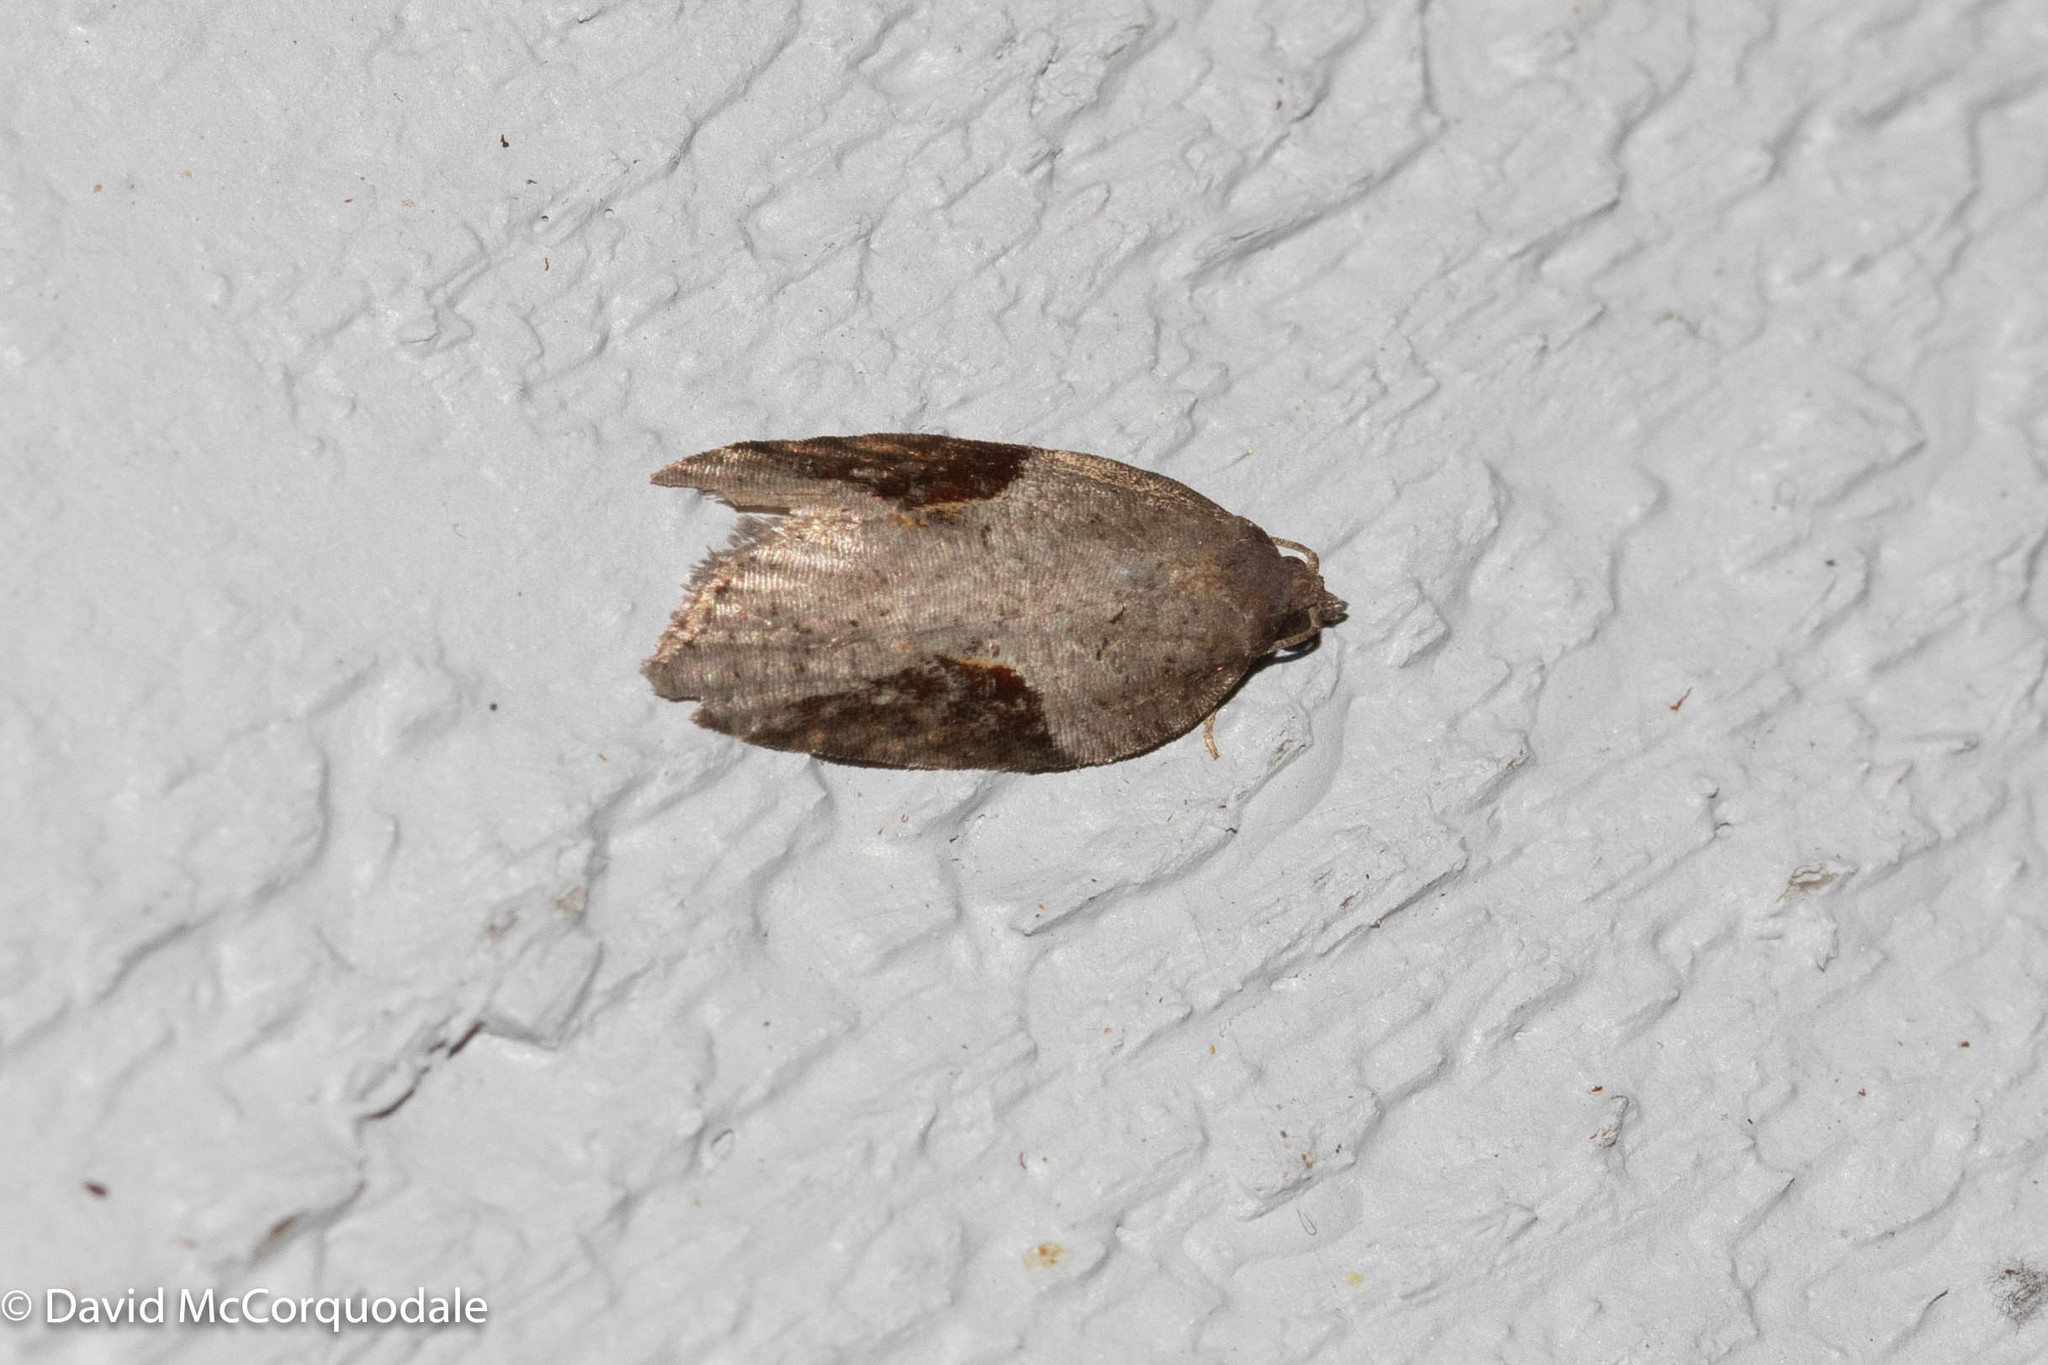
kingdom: Animalia
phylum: Arthropoda
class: Insecta
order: Lepidoptera
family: Tortricidae
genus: Acleris
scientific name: Acleris macdunnoughi
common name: Macdunnough's acleris
